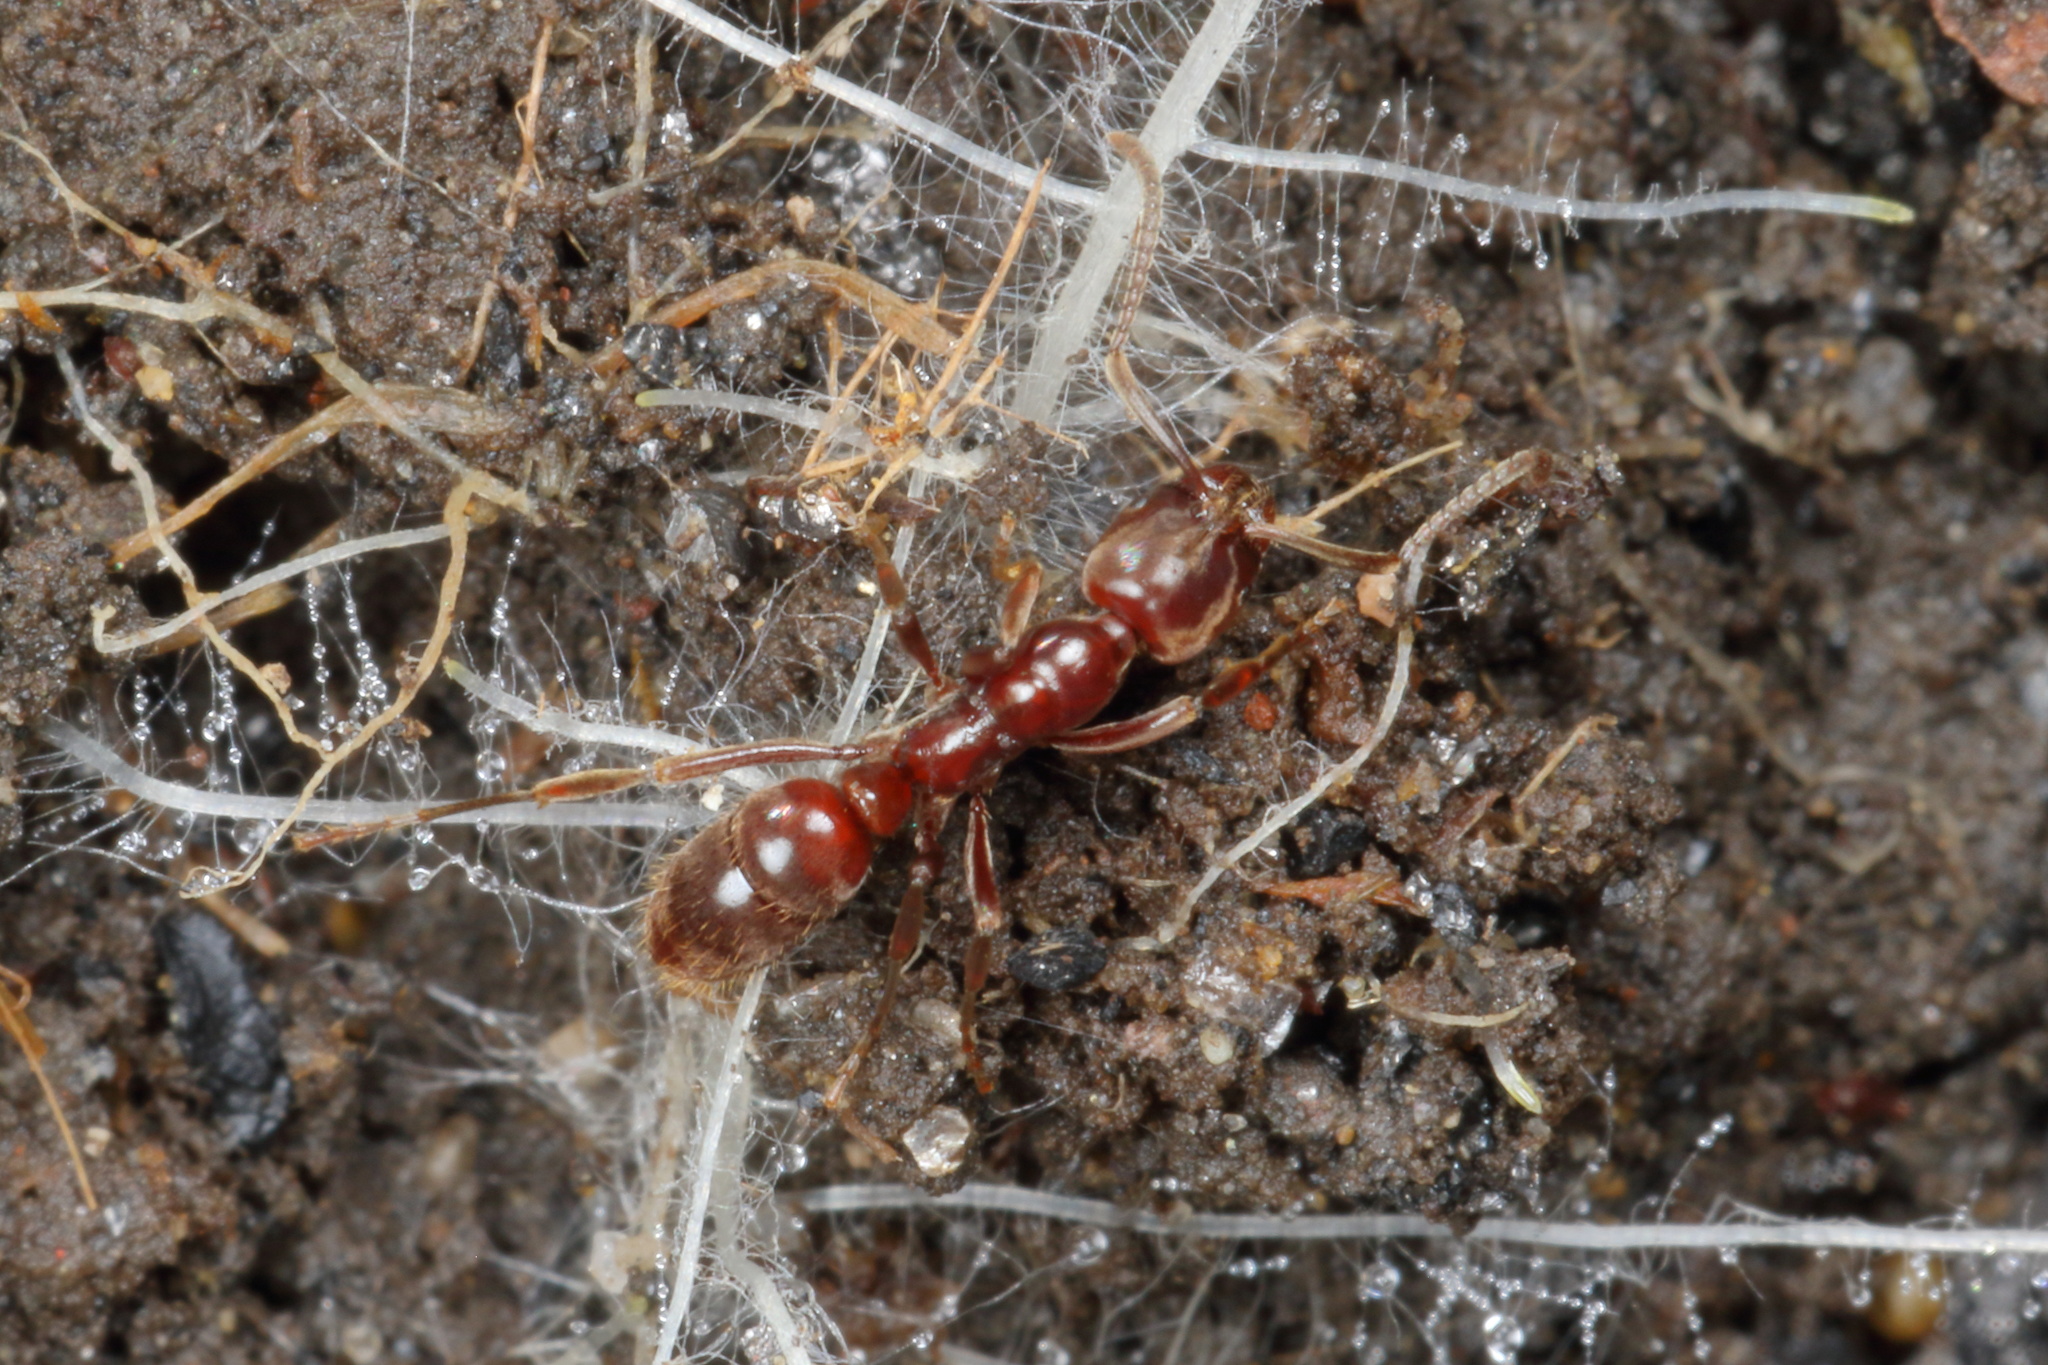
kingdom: Animalia
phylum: Arthropoda
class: Insecta
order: Hymenoptera
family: Formicidae
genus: Austroponera
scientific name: Austroponera
